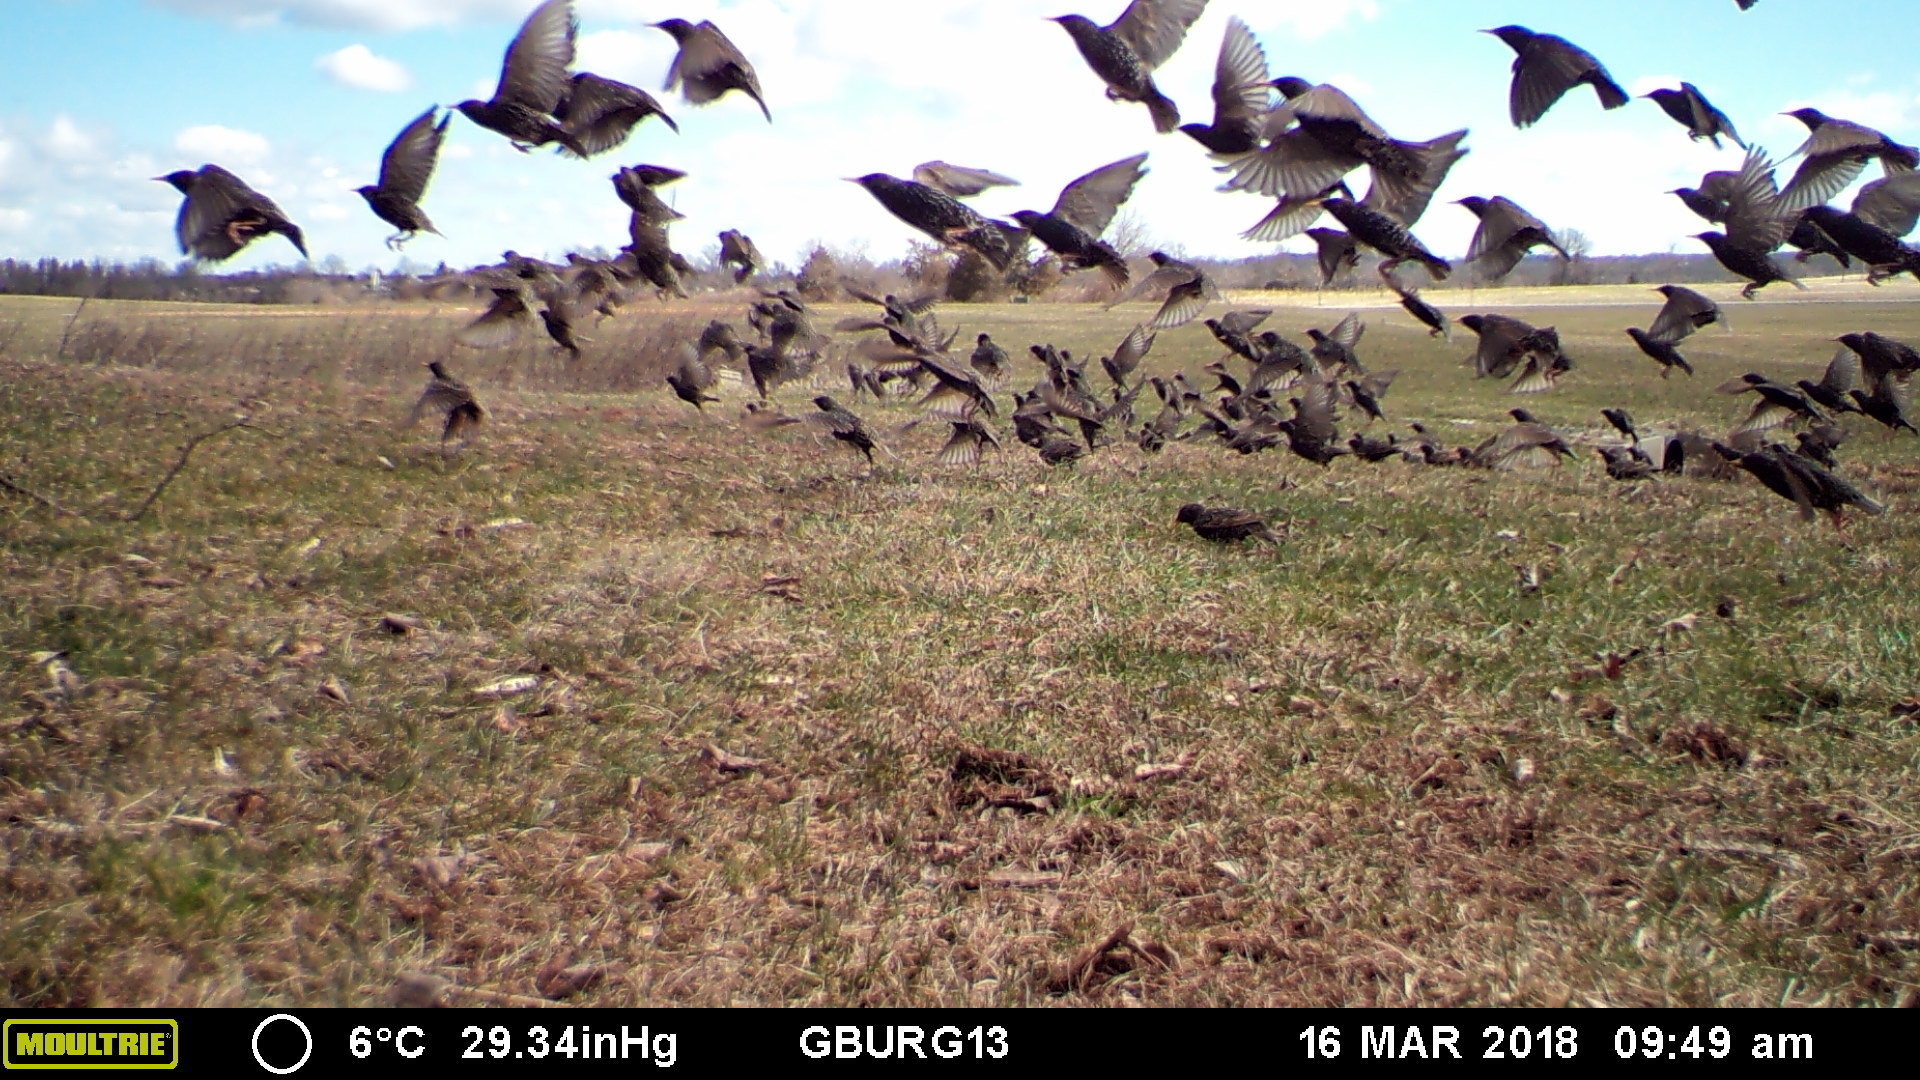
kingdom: Animalia
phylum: Chordata
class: Aves
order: Passeriformes
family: Sturnidae
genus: Sturnus
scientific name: Sturnus vulgaris
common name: Common starling
